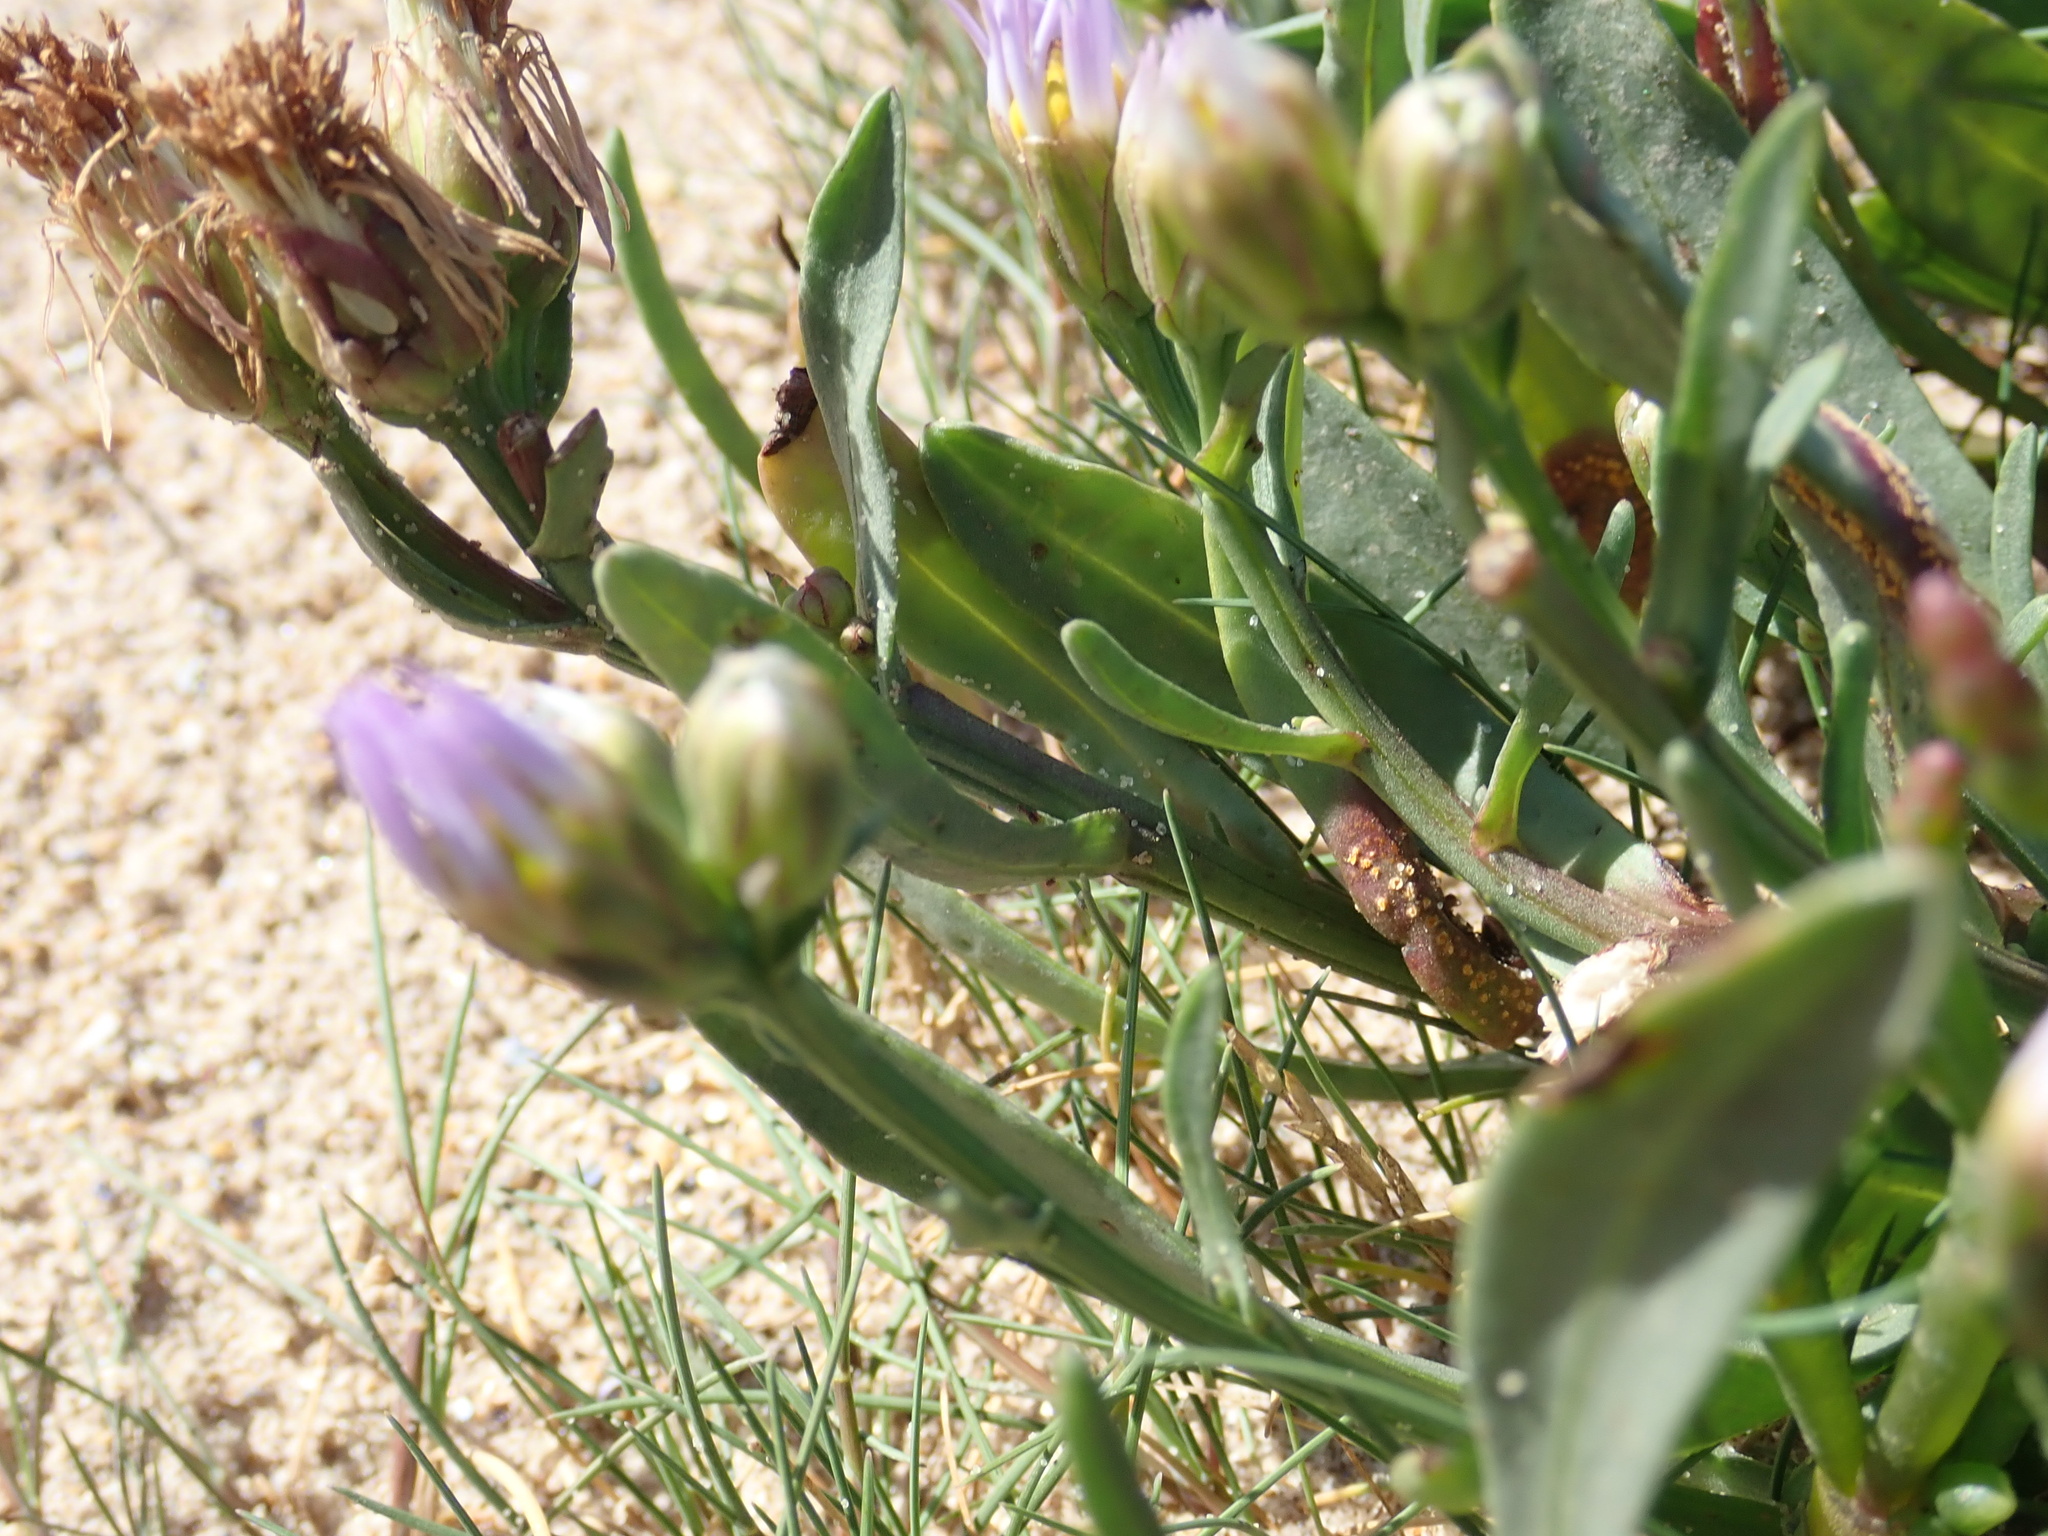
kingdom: Plantae
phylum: Tracheophyta
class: Magnoliopsida
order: Asterales
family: Asteraceae
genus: Tripolium
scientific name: Tripolium pannonicum
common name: Sea aster
